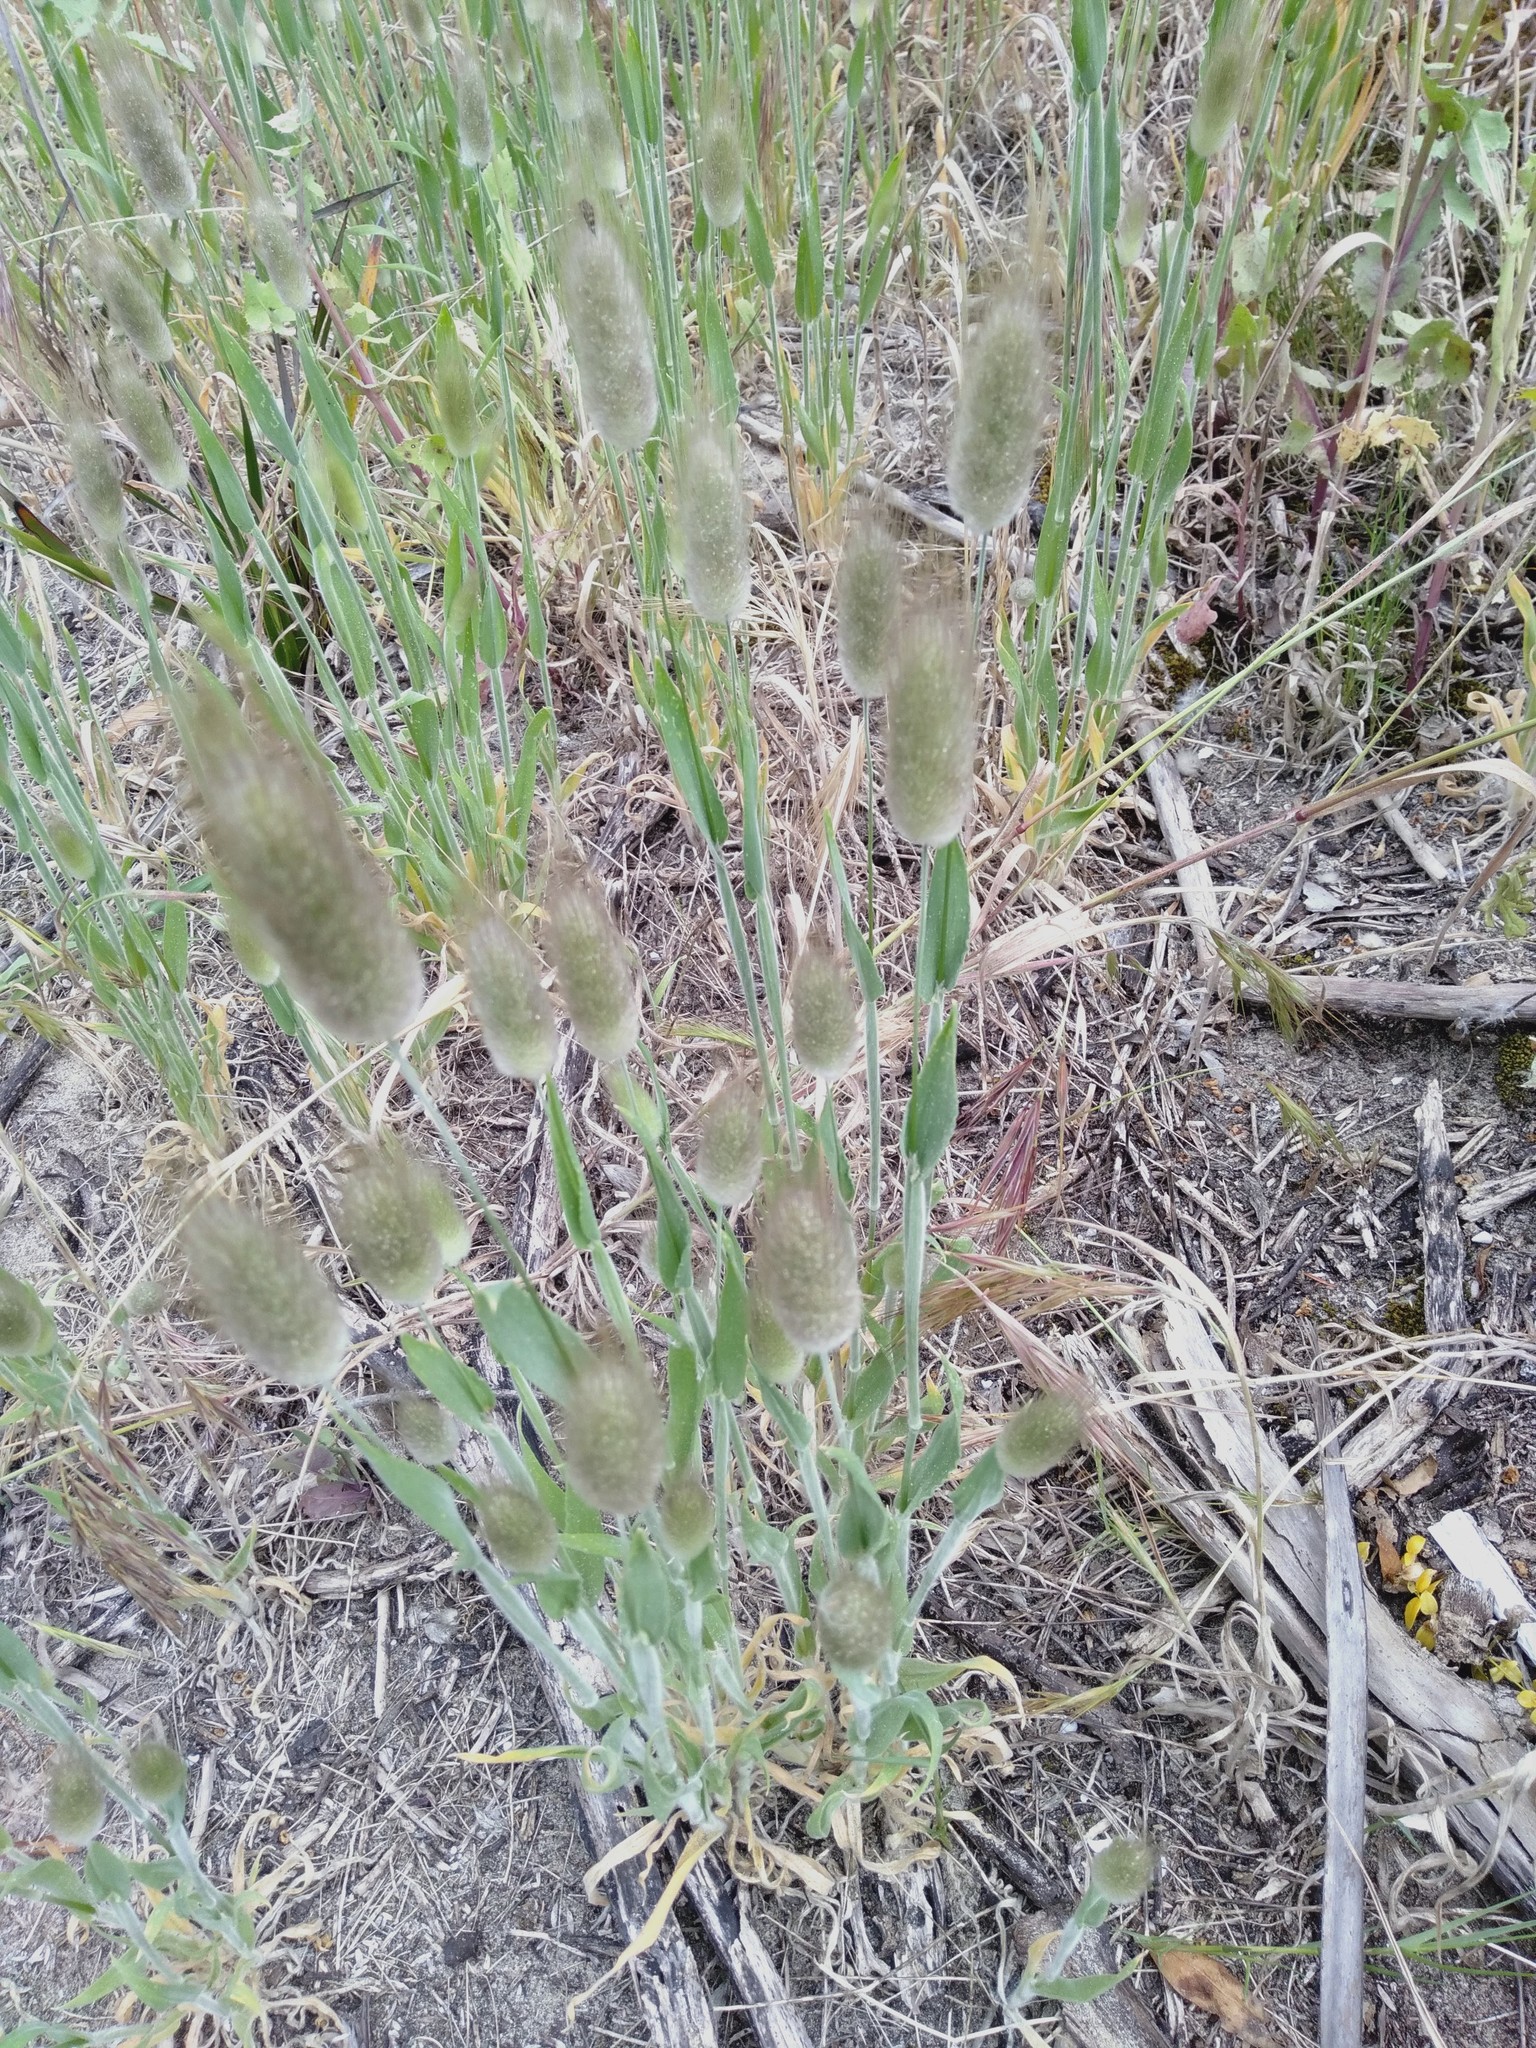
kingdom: Plantae
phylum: Tracheophyta
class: Liliopsida
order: Poales
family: Poaceae
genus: Lagurus
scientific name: Lagurus ovatus
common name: Hare's-tail
